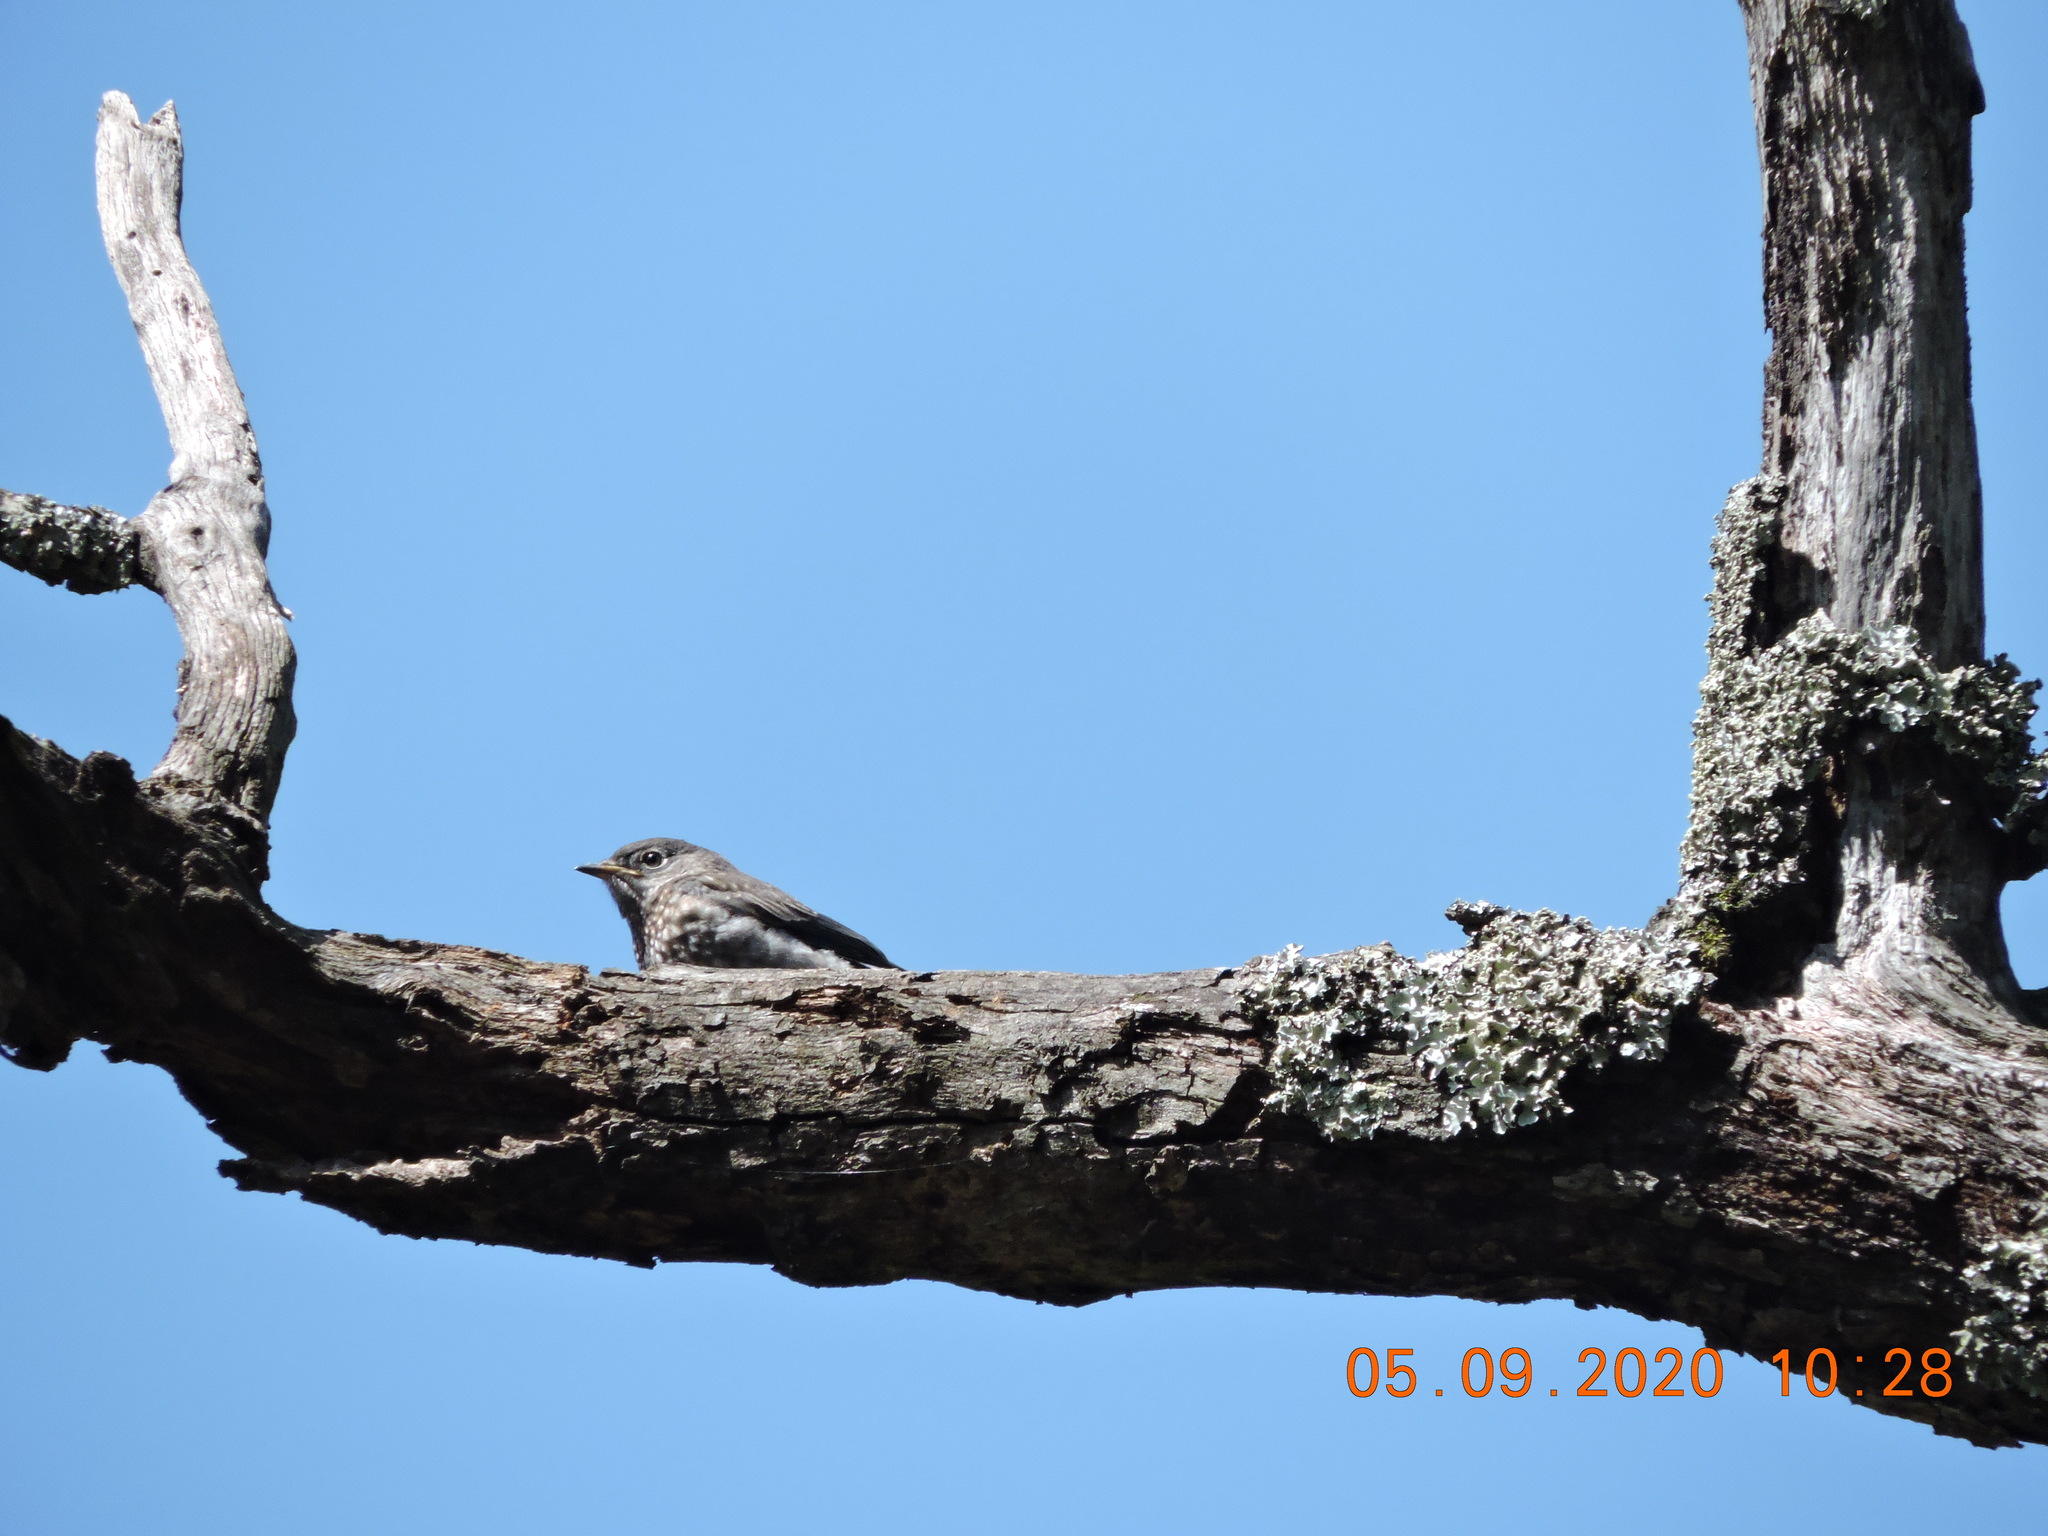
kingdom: Animalia
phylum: Chordata
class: Aves
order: Passeriformes
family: Turdidae
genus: Sialia
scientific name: Sialia sialis
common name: Eastern bluebird
